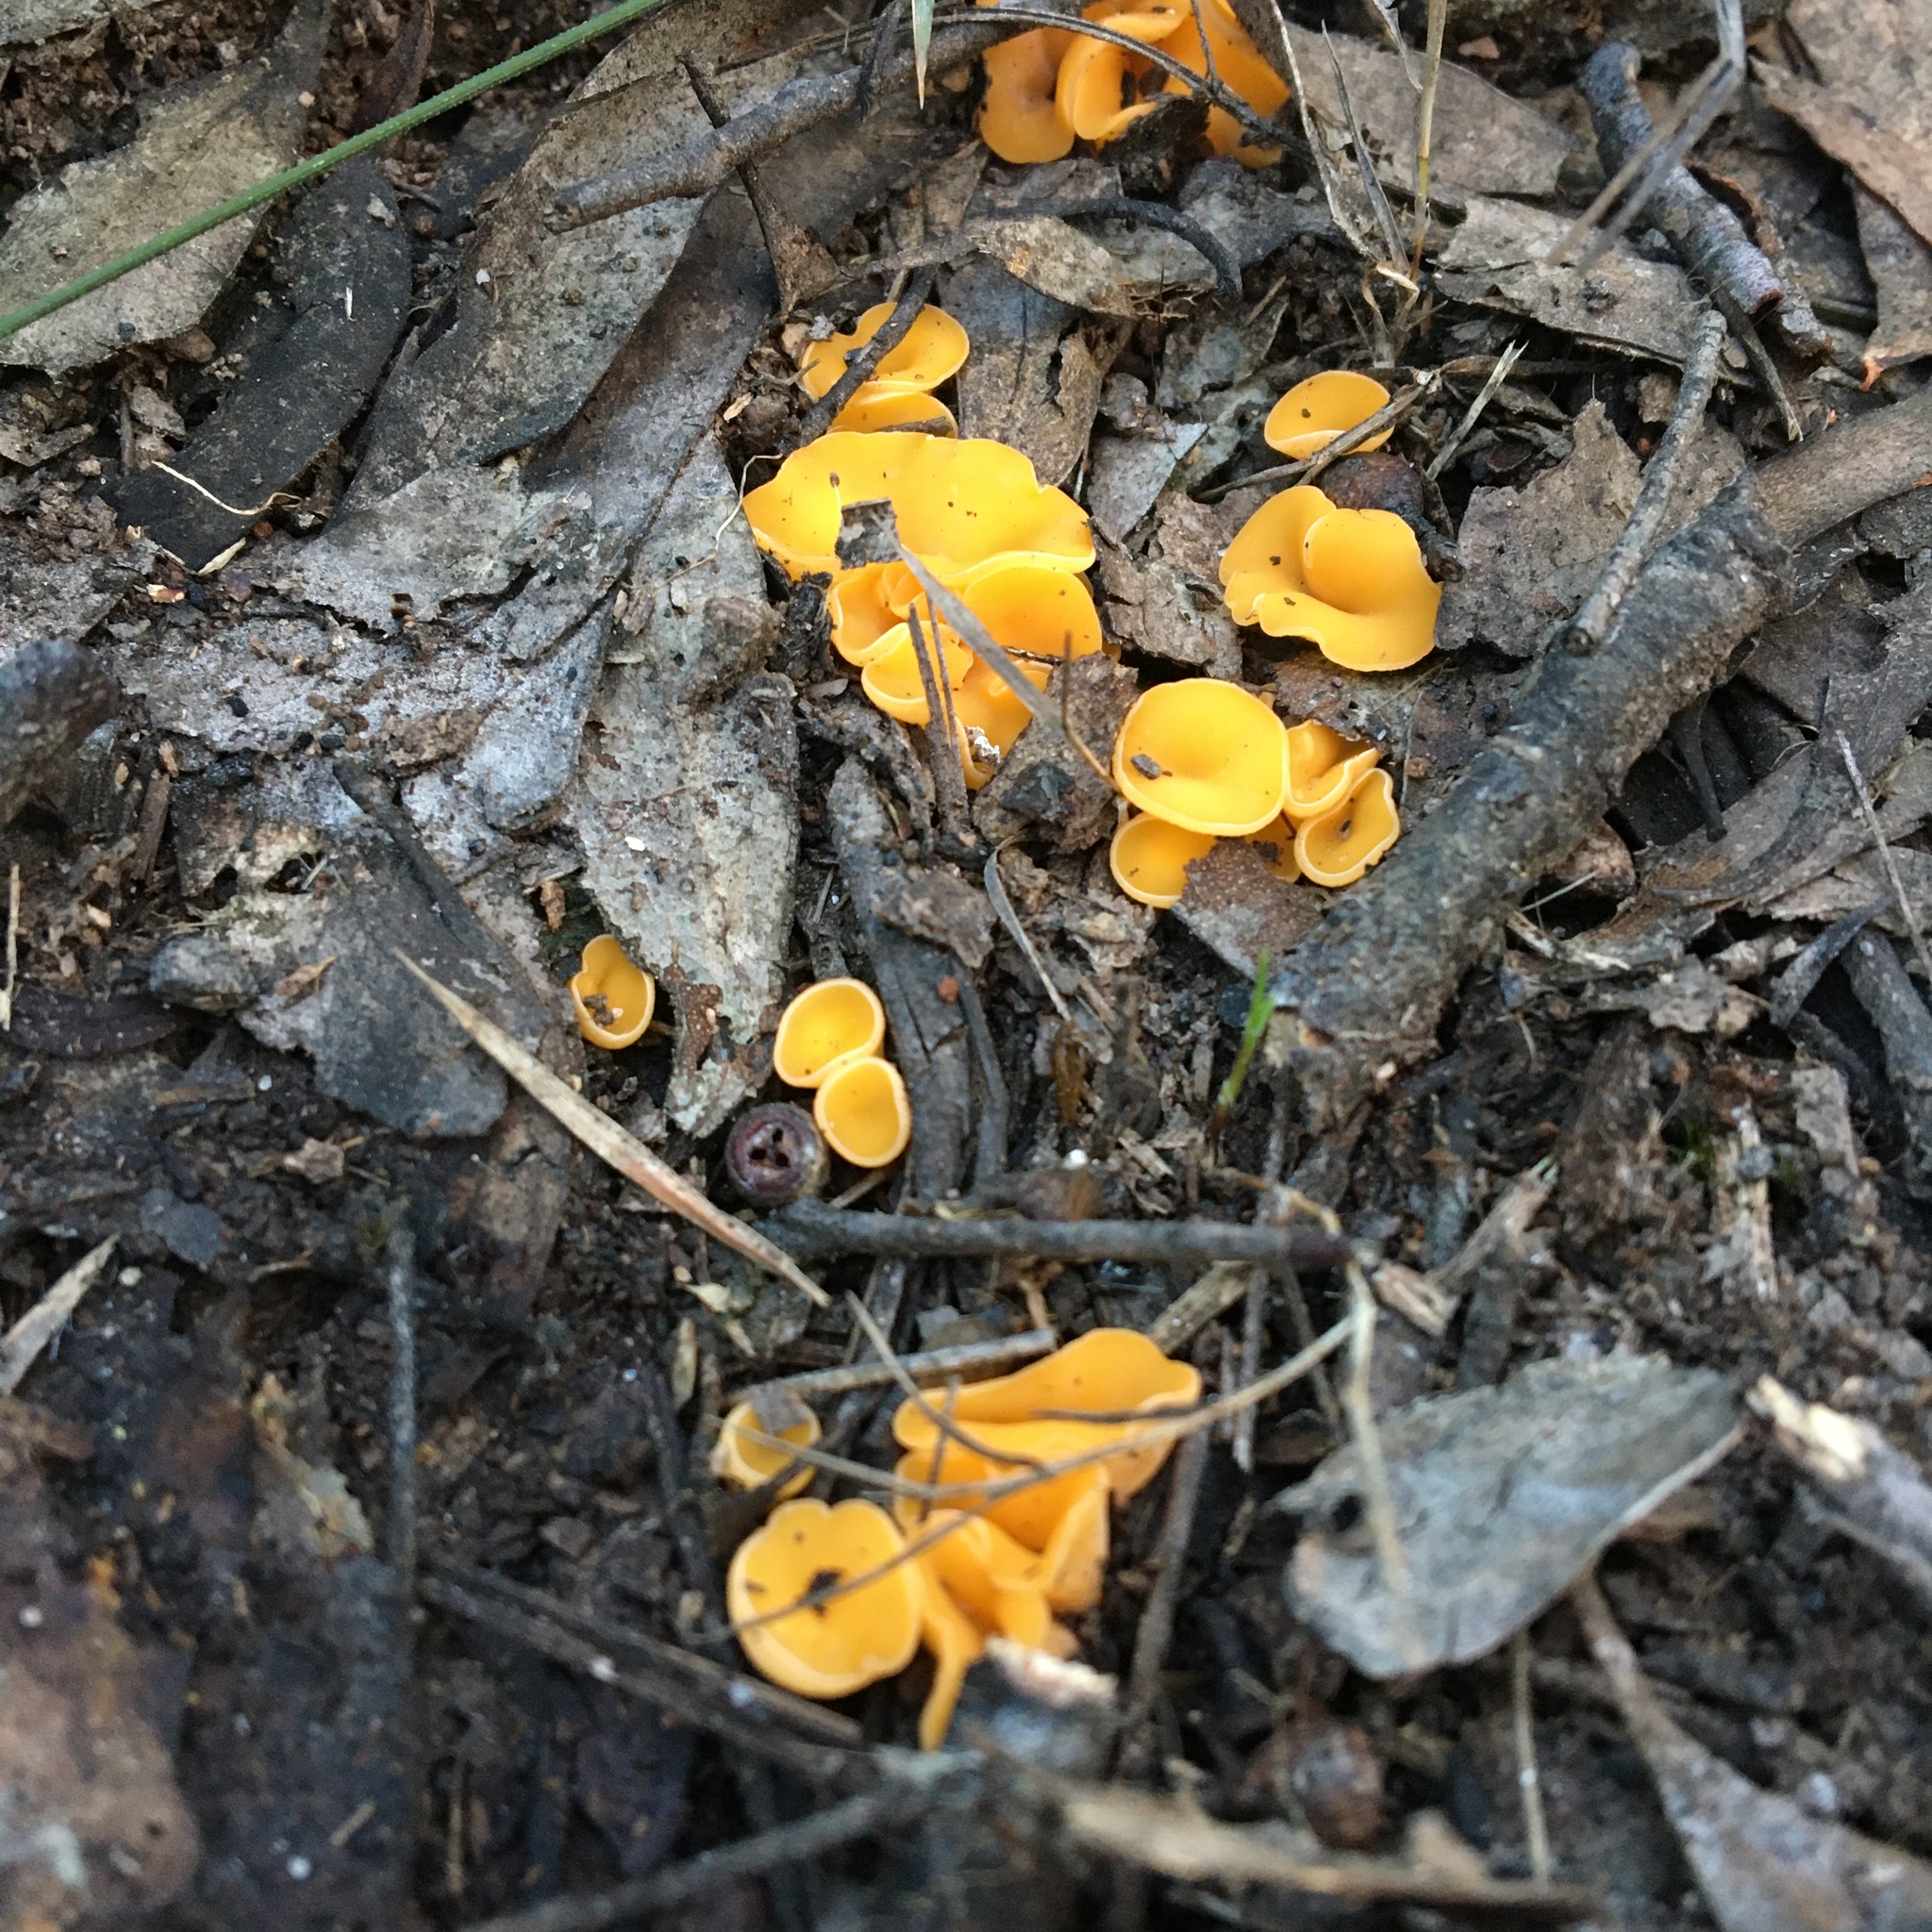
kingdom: Fungi
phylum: Ascomycota
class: Leotiomycetes
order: Helotiales
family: Helotiaceae
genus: Phaeohelotium
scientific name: Phaeohelotium baileyanum
